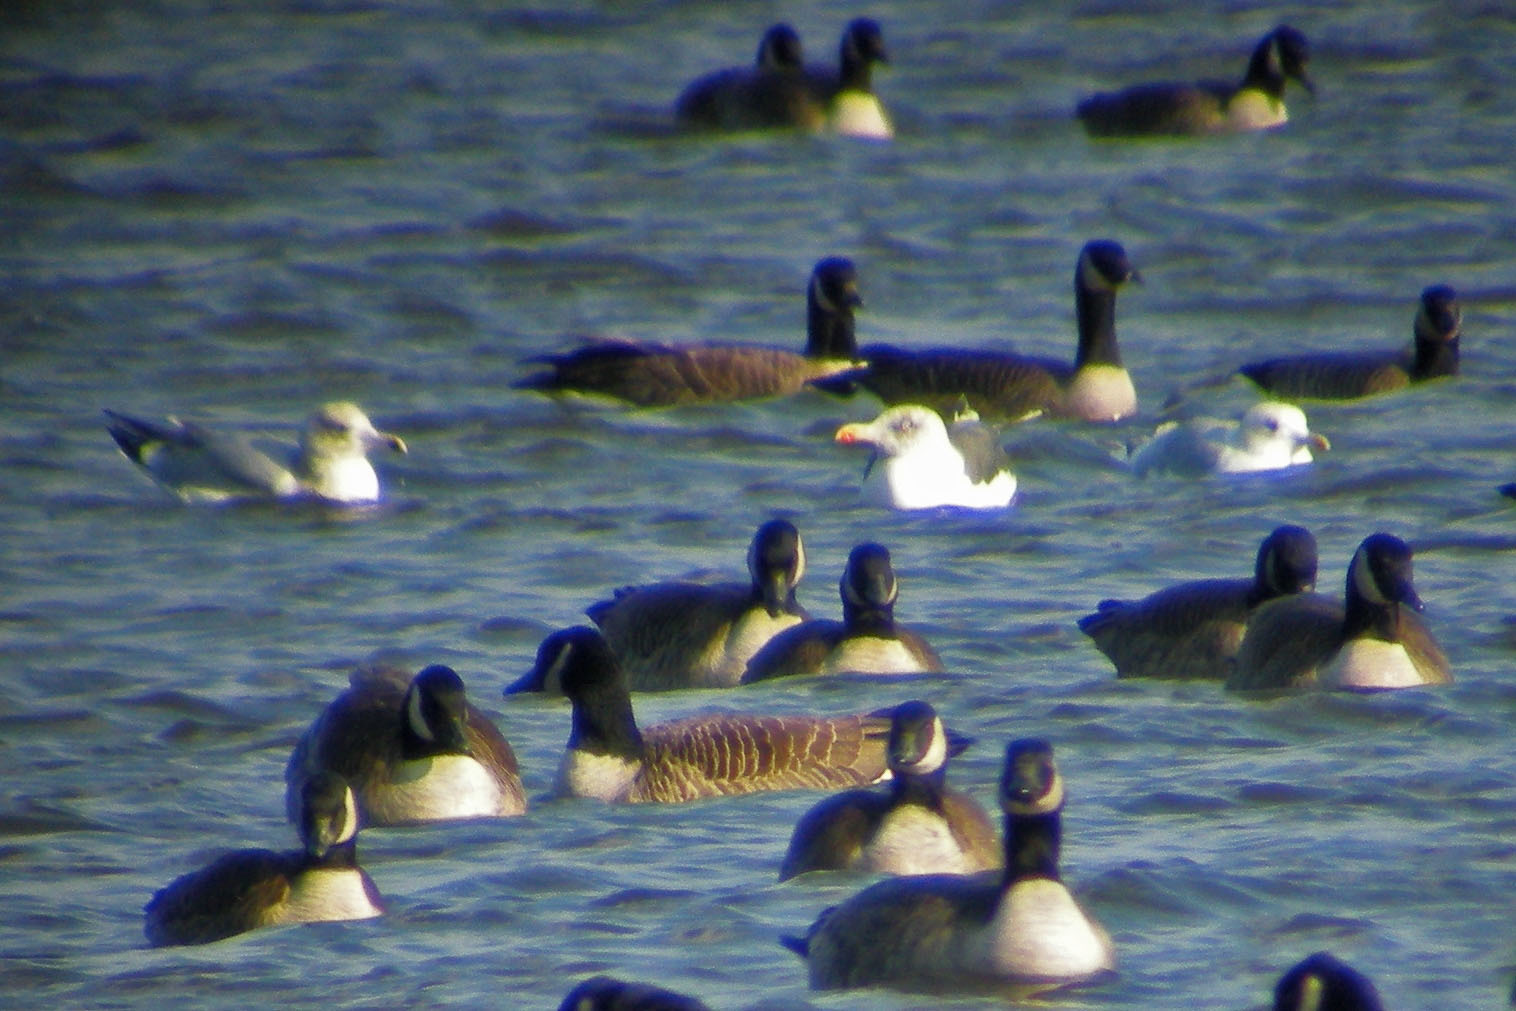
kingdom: Animalia
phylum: Chordata
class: Aves
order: Charadriiformes
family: Laridae
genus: Larus
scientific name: Larus argentatus
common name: Herring gull
